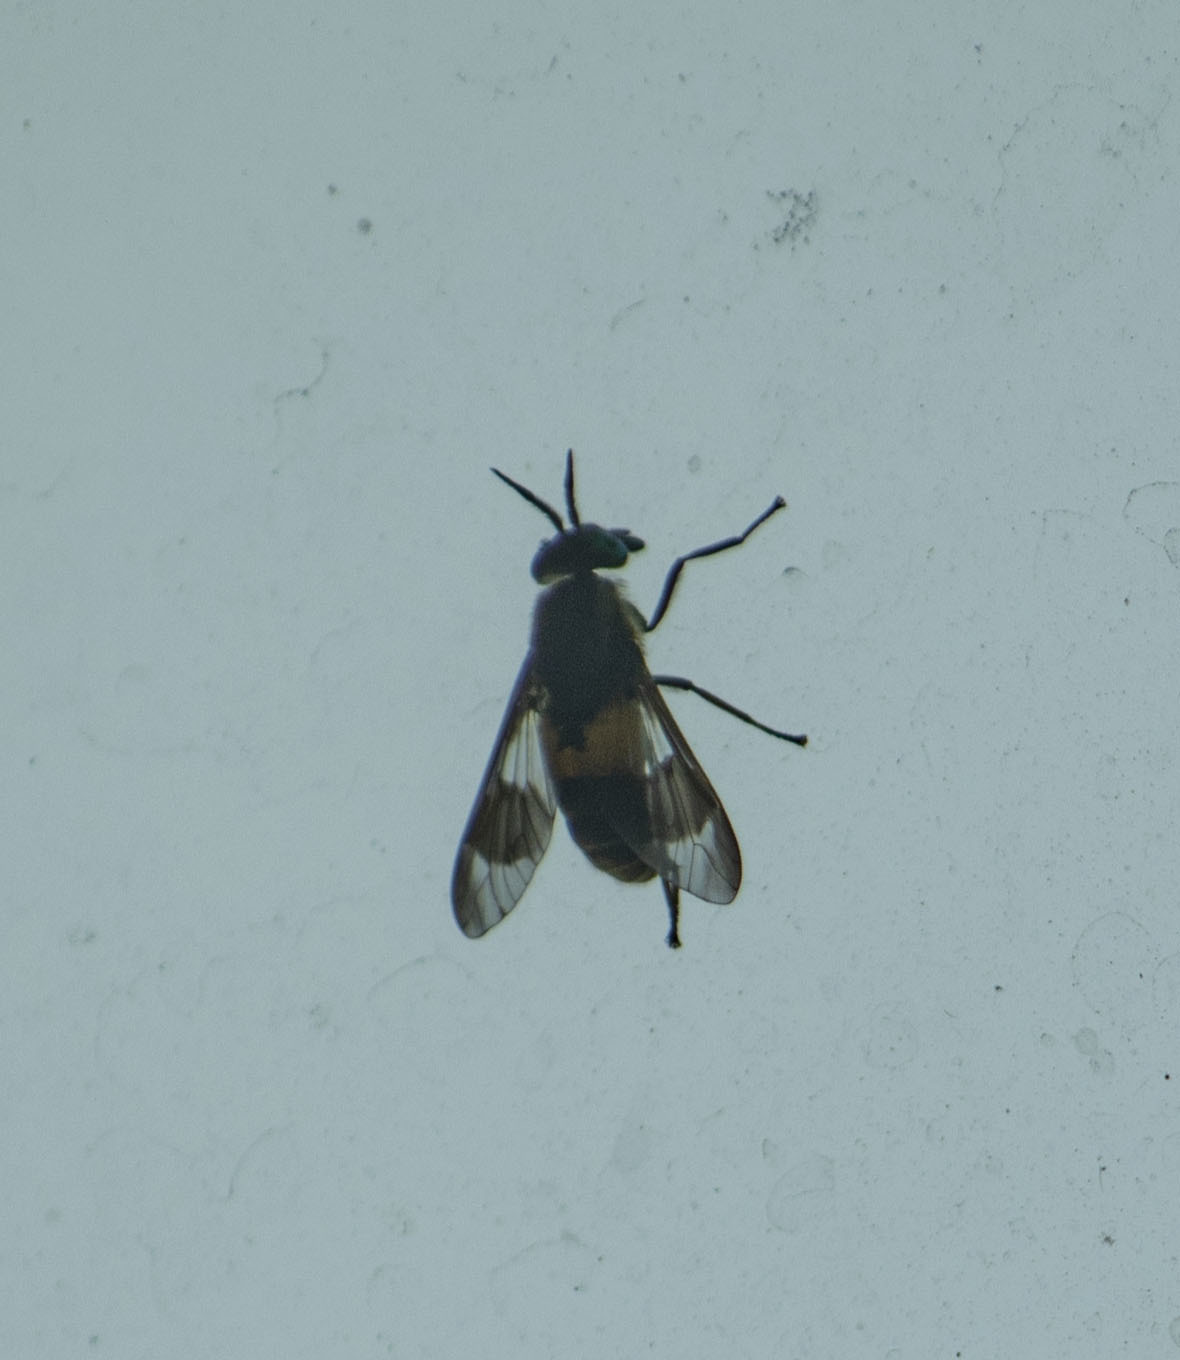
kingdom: Animalia
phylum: Arthropoda
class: Insecta
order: Diptera
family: Tabanidae
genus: Chrysops
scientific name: Chrysops viduatus
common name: Square-spot deerfly
